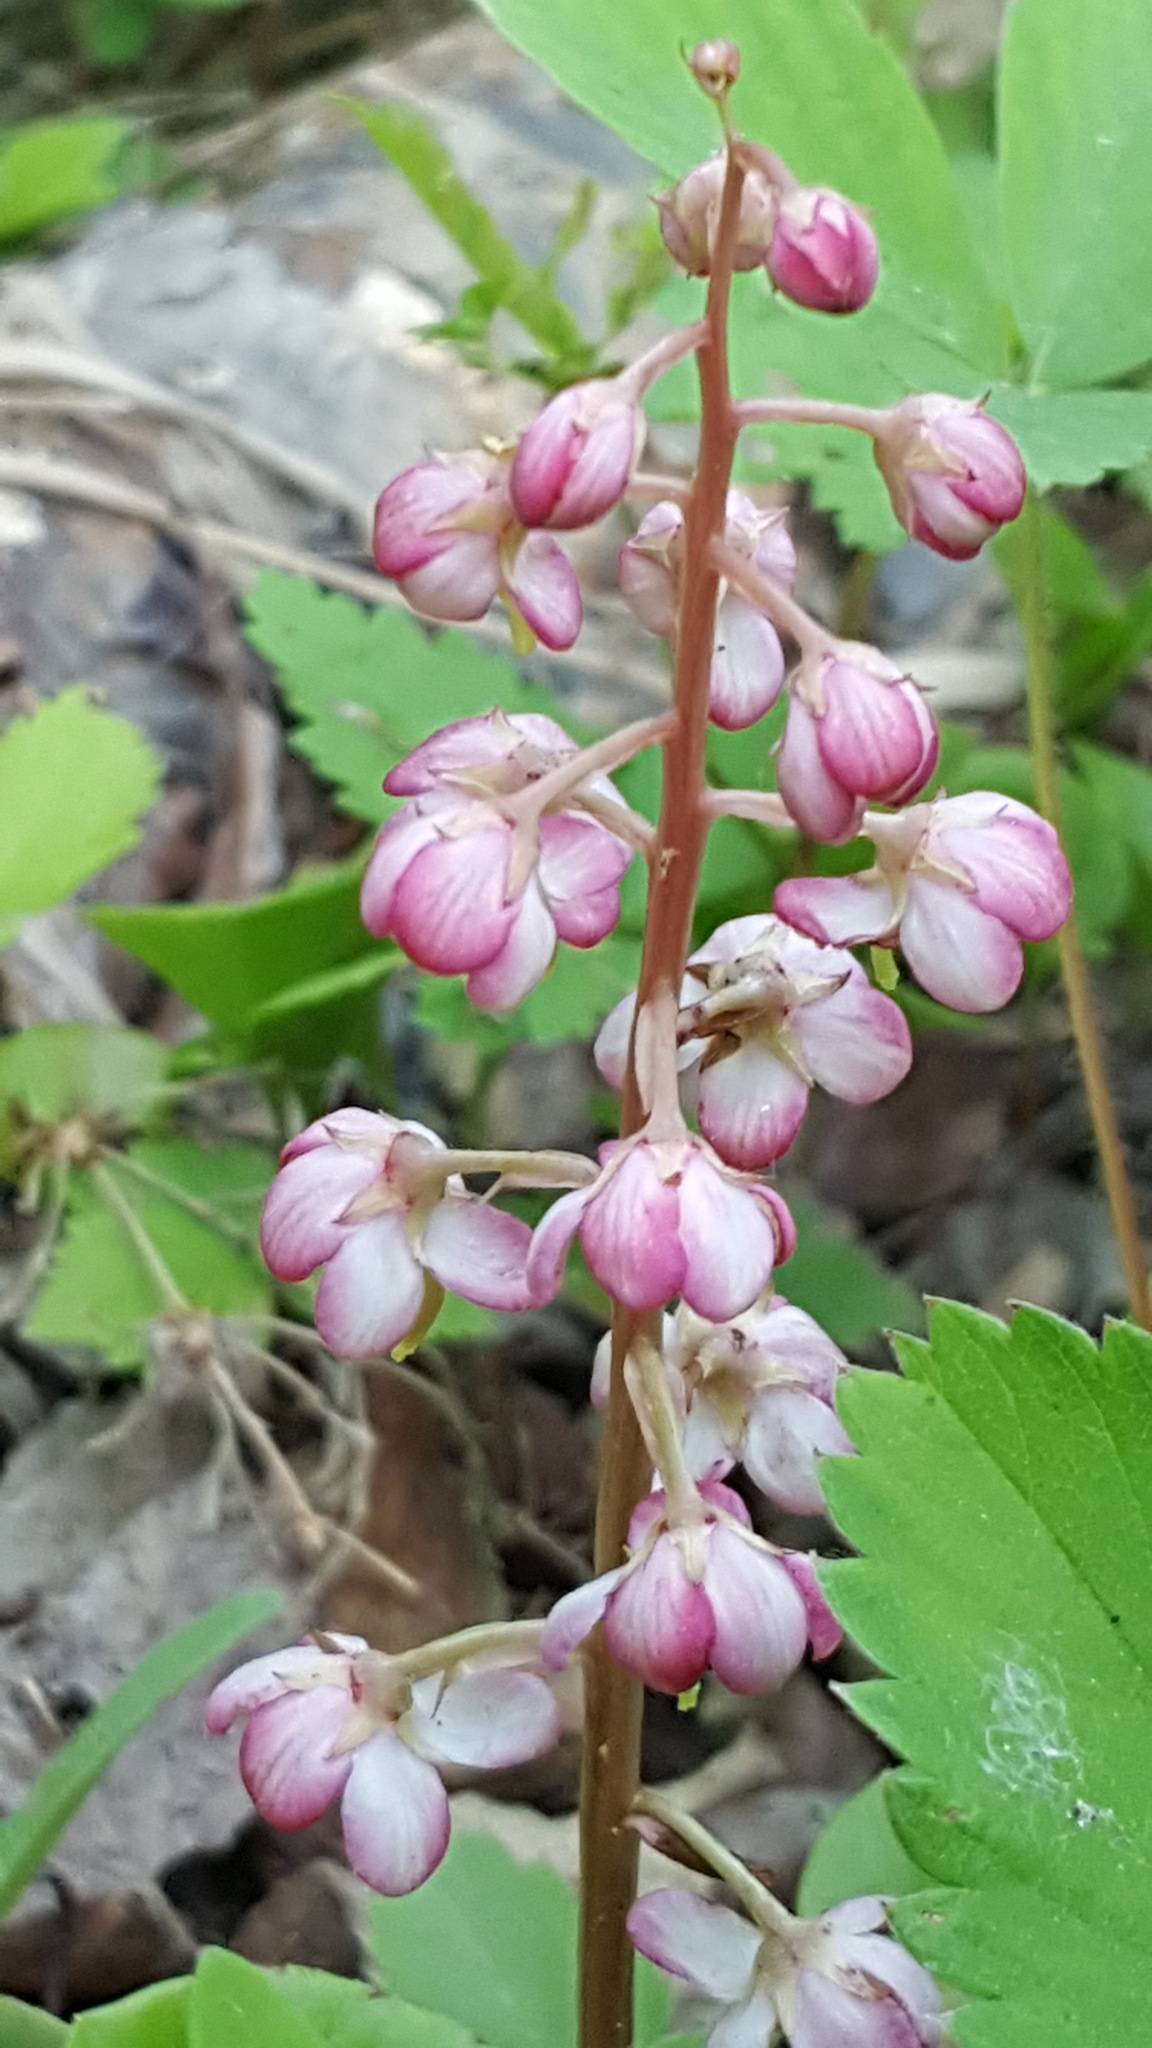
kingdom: Plantae
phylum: Tracheophyta
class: Magnoliopsida
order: Ericales
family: Ericaceae
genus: Pyrola
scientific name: Pyrola asarifolia
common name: Bog wintergreen
